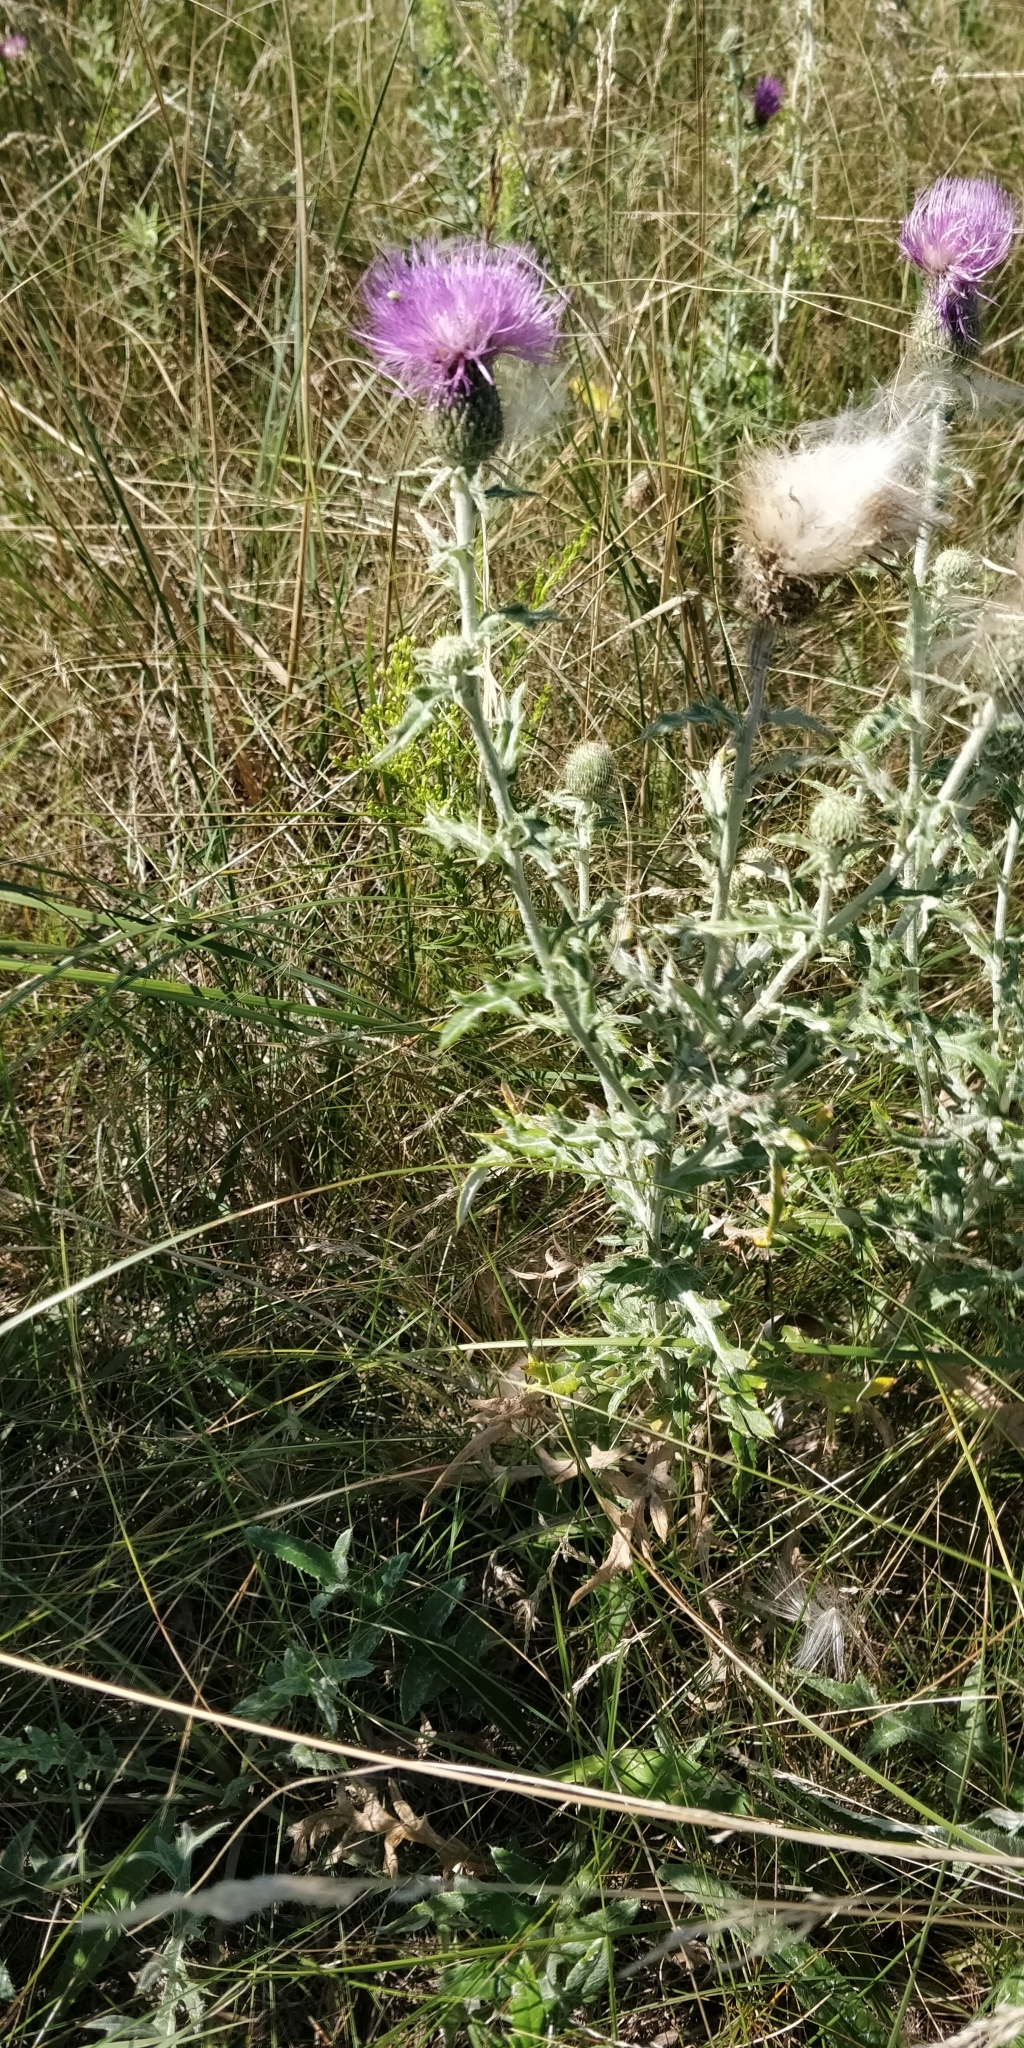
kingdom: Plantae
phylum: Tracheophyta
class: Magnoliopsida
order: Asterales
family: Asteraceae
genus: Cirsium
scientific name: Cirsium flodmanii
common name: Flodman's thistle
